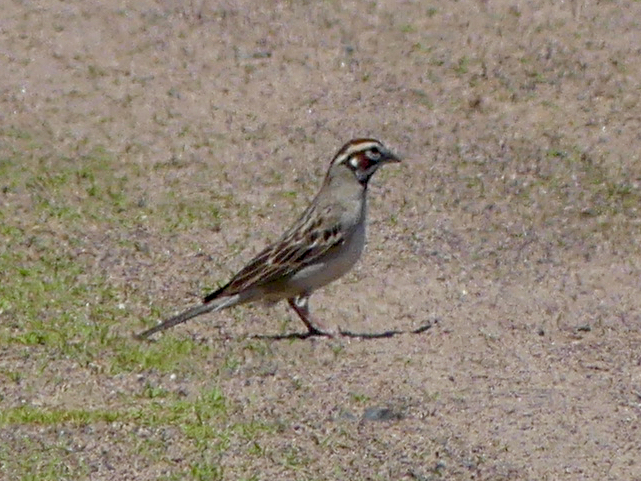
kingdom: Animalia
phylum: Chordata
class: Aves
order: Passeriformes
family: Passerellidae
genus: Chondestes
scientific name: Chondestes grammacus
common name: Lark sparrow
